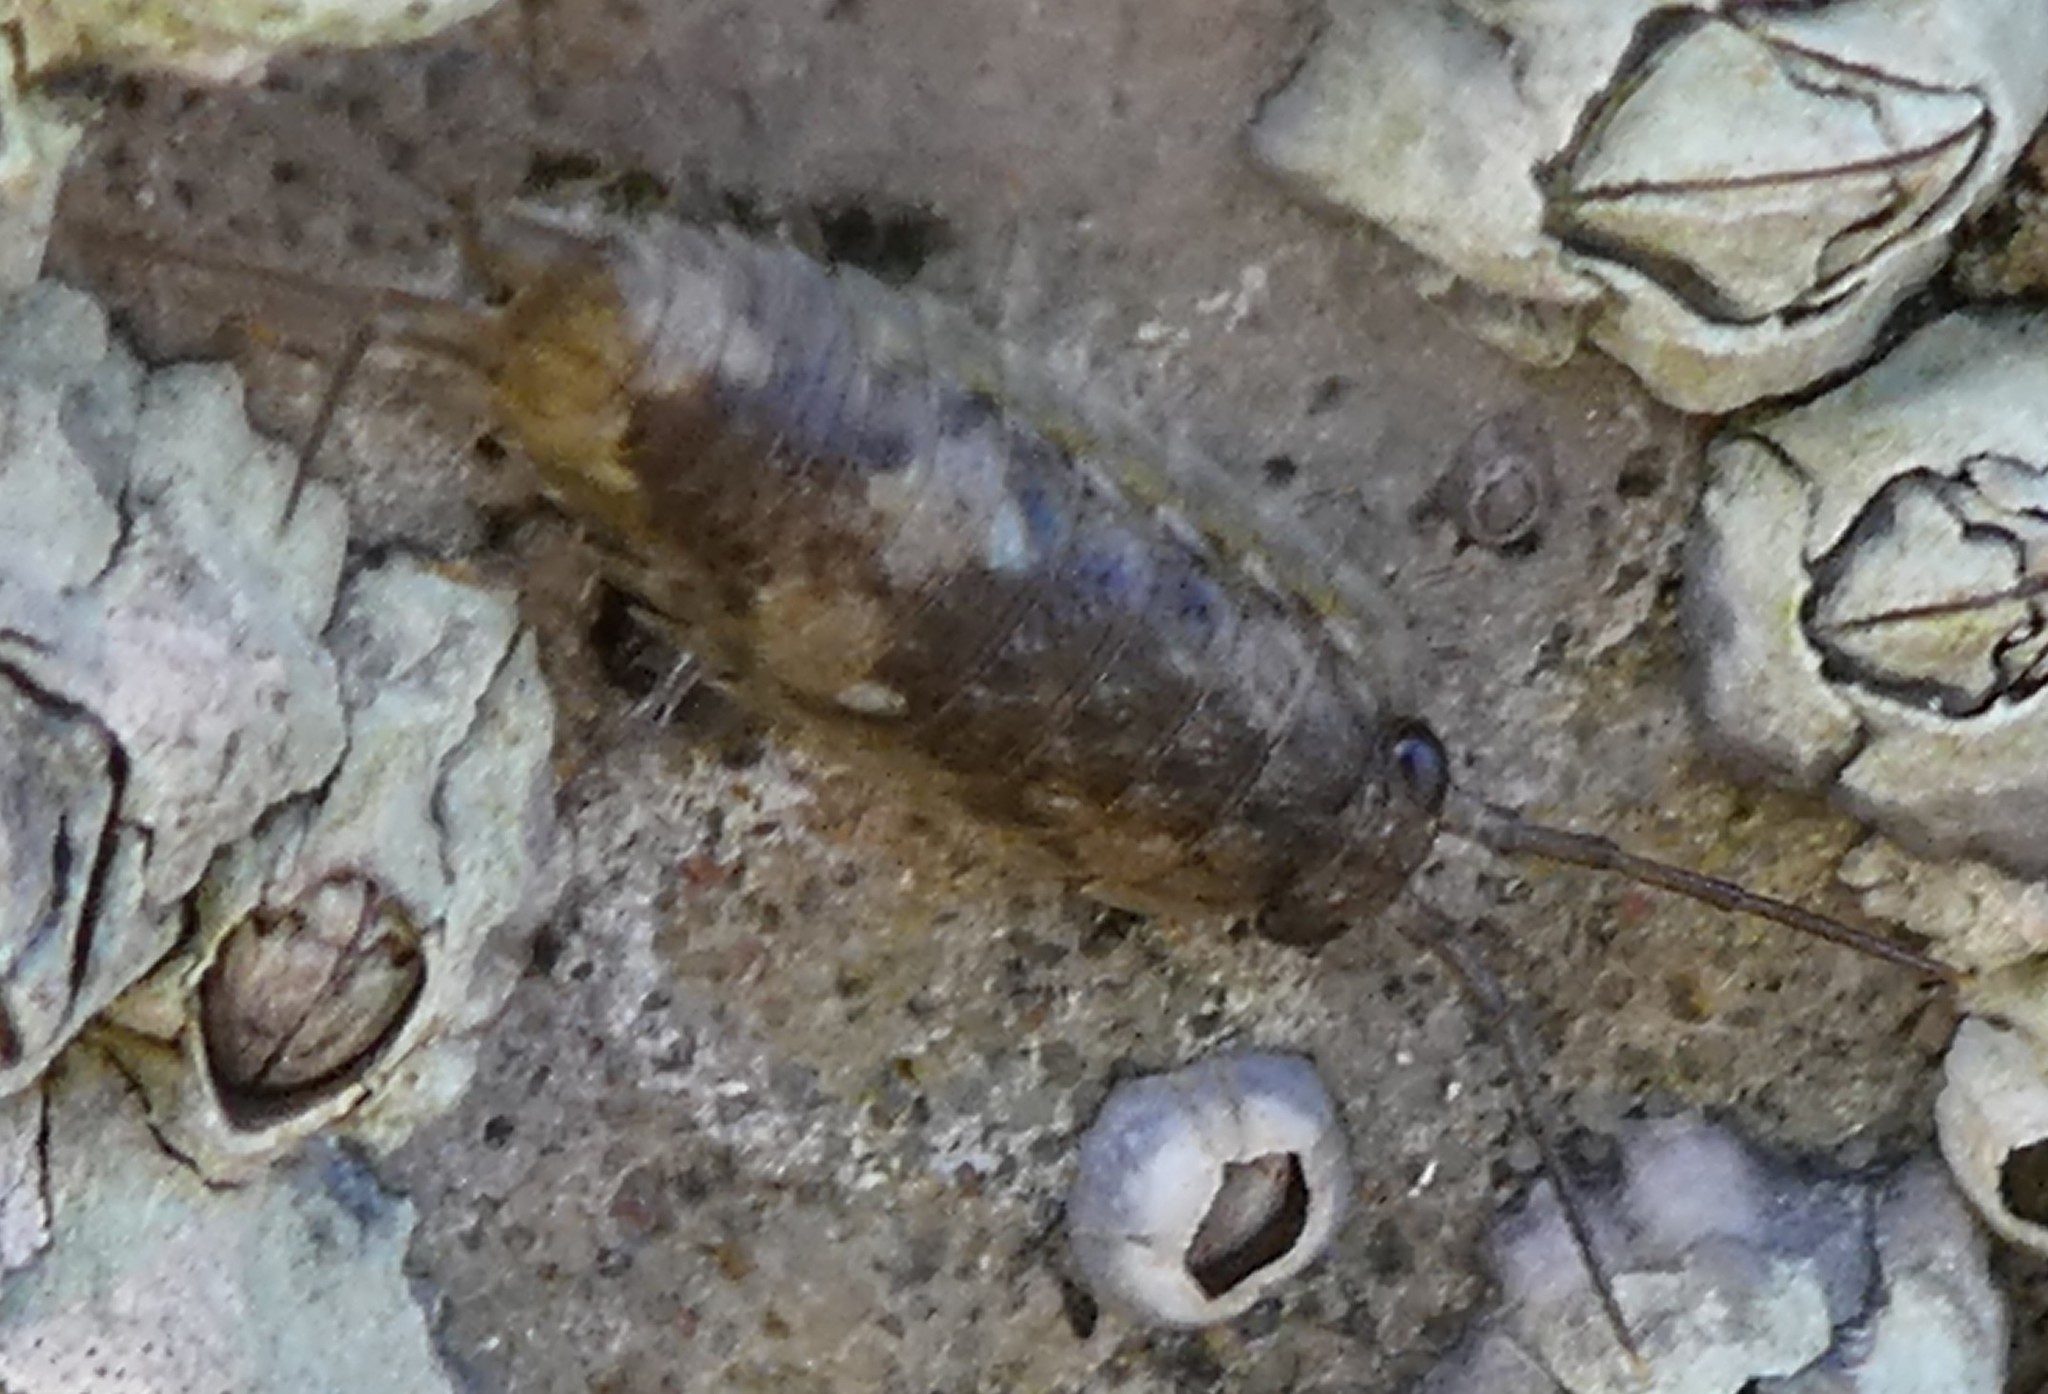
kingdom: Animalia
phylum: Arthropoda
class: Malacostraca
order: Isopoda
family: Ligiidae
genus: Ligia
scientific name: Ligia oceanica
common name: Sea slater
